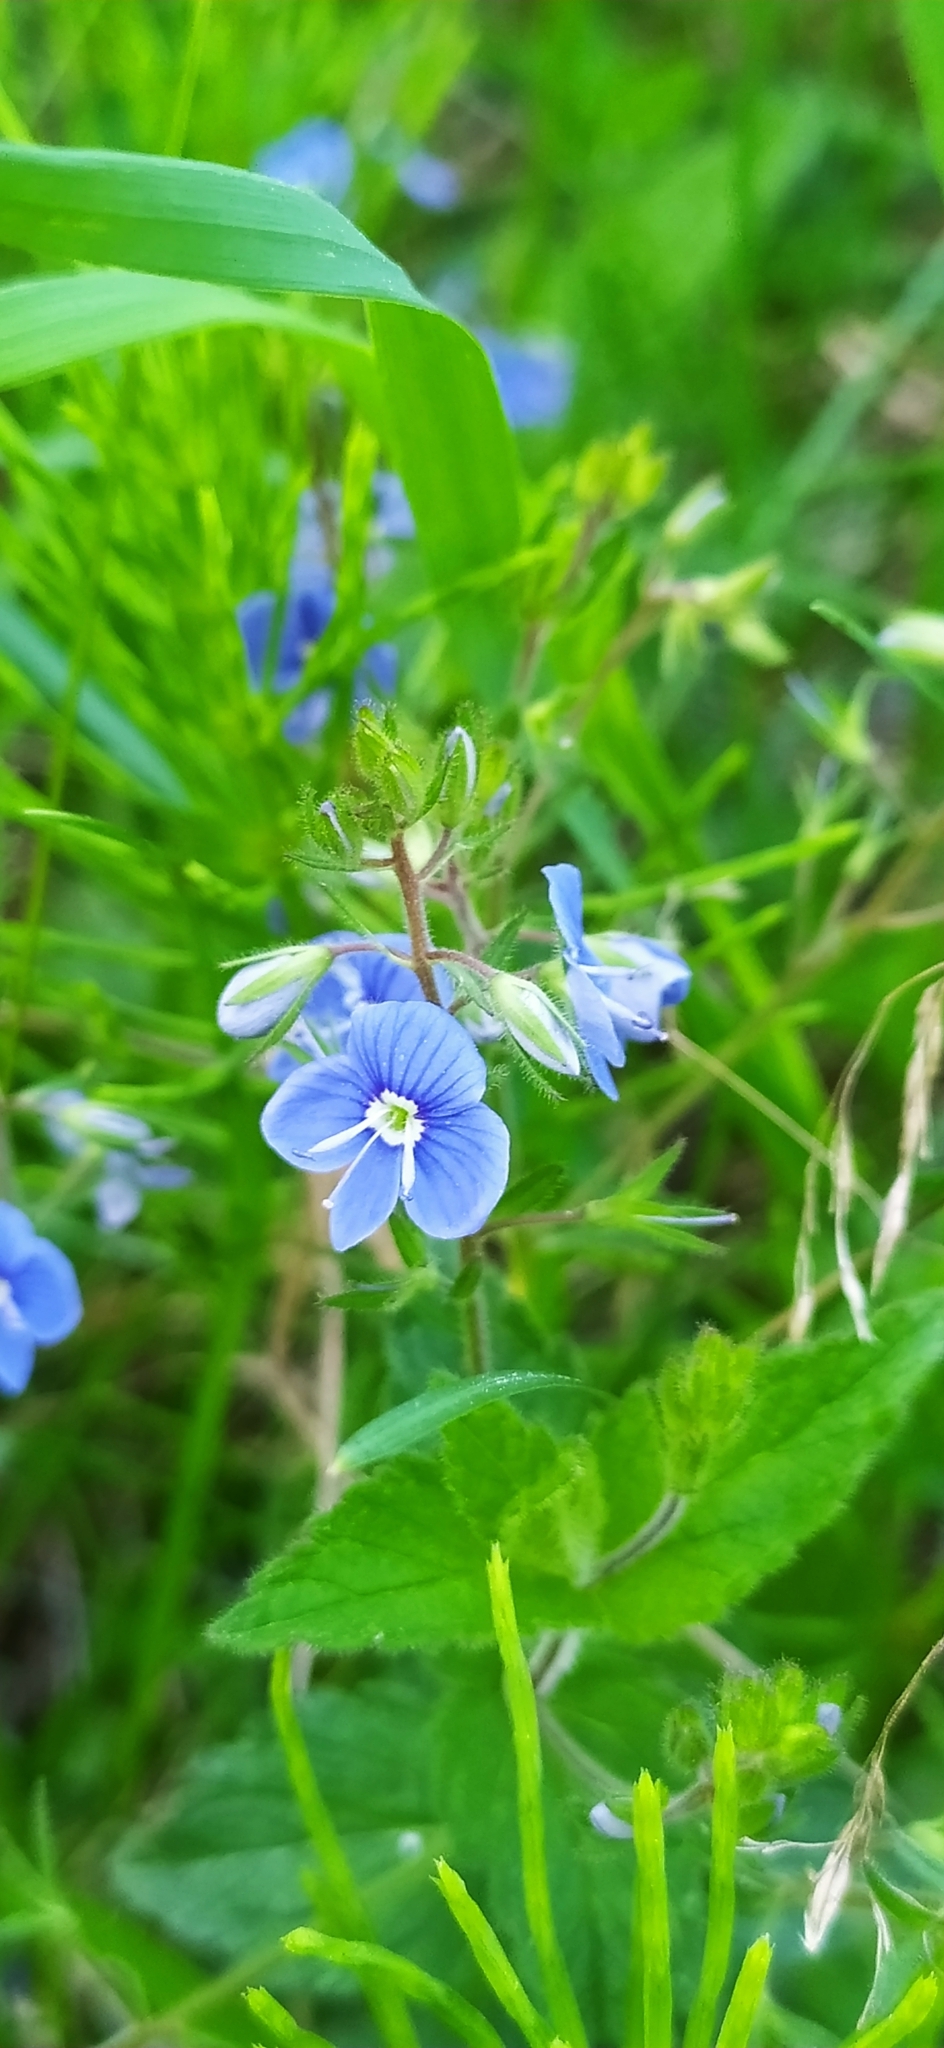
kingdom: Plantae
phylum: Tracheophyta
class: Magnoliopsida
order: Lamiales
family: Plantaginaceae
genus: Veronica
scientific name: Veronica chamaedrys
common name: Germander speedwell
